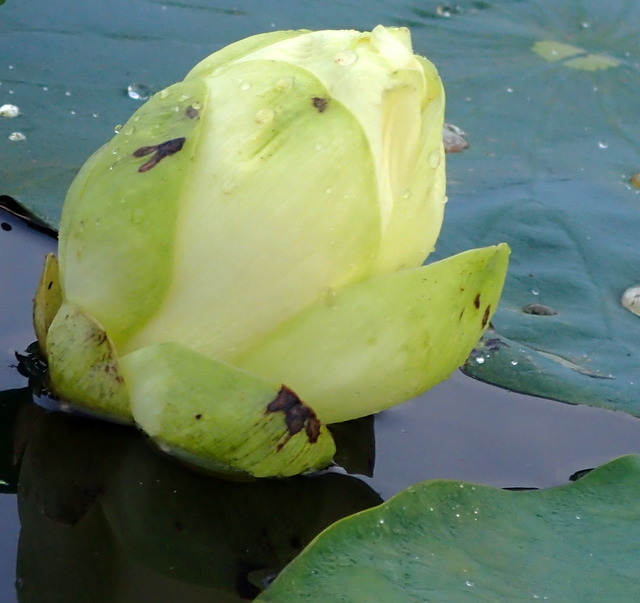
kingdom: Plantae
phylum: Tracheophyta
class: Magnoliopsida
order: Proteales
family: Nelumbonaceae
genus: Nelumbo
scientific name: Nelumbo lutea
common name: American lotus
